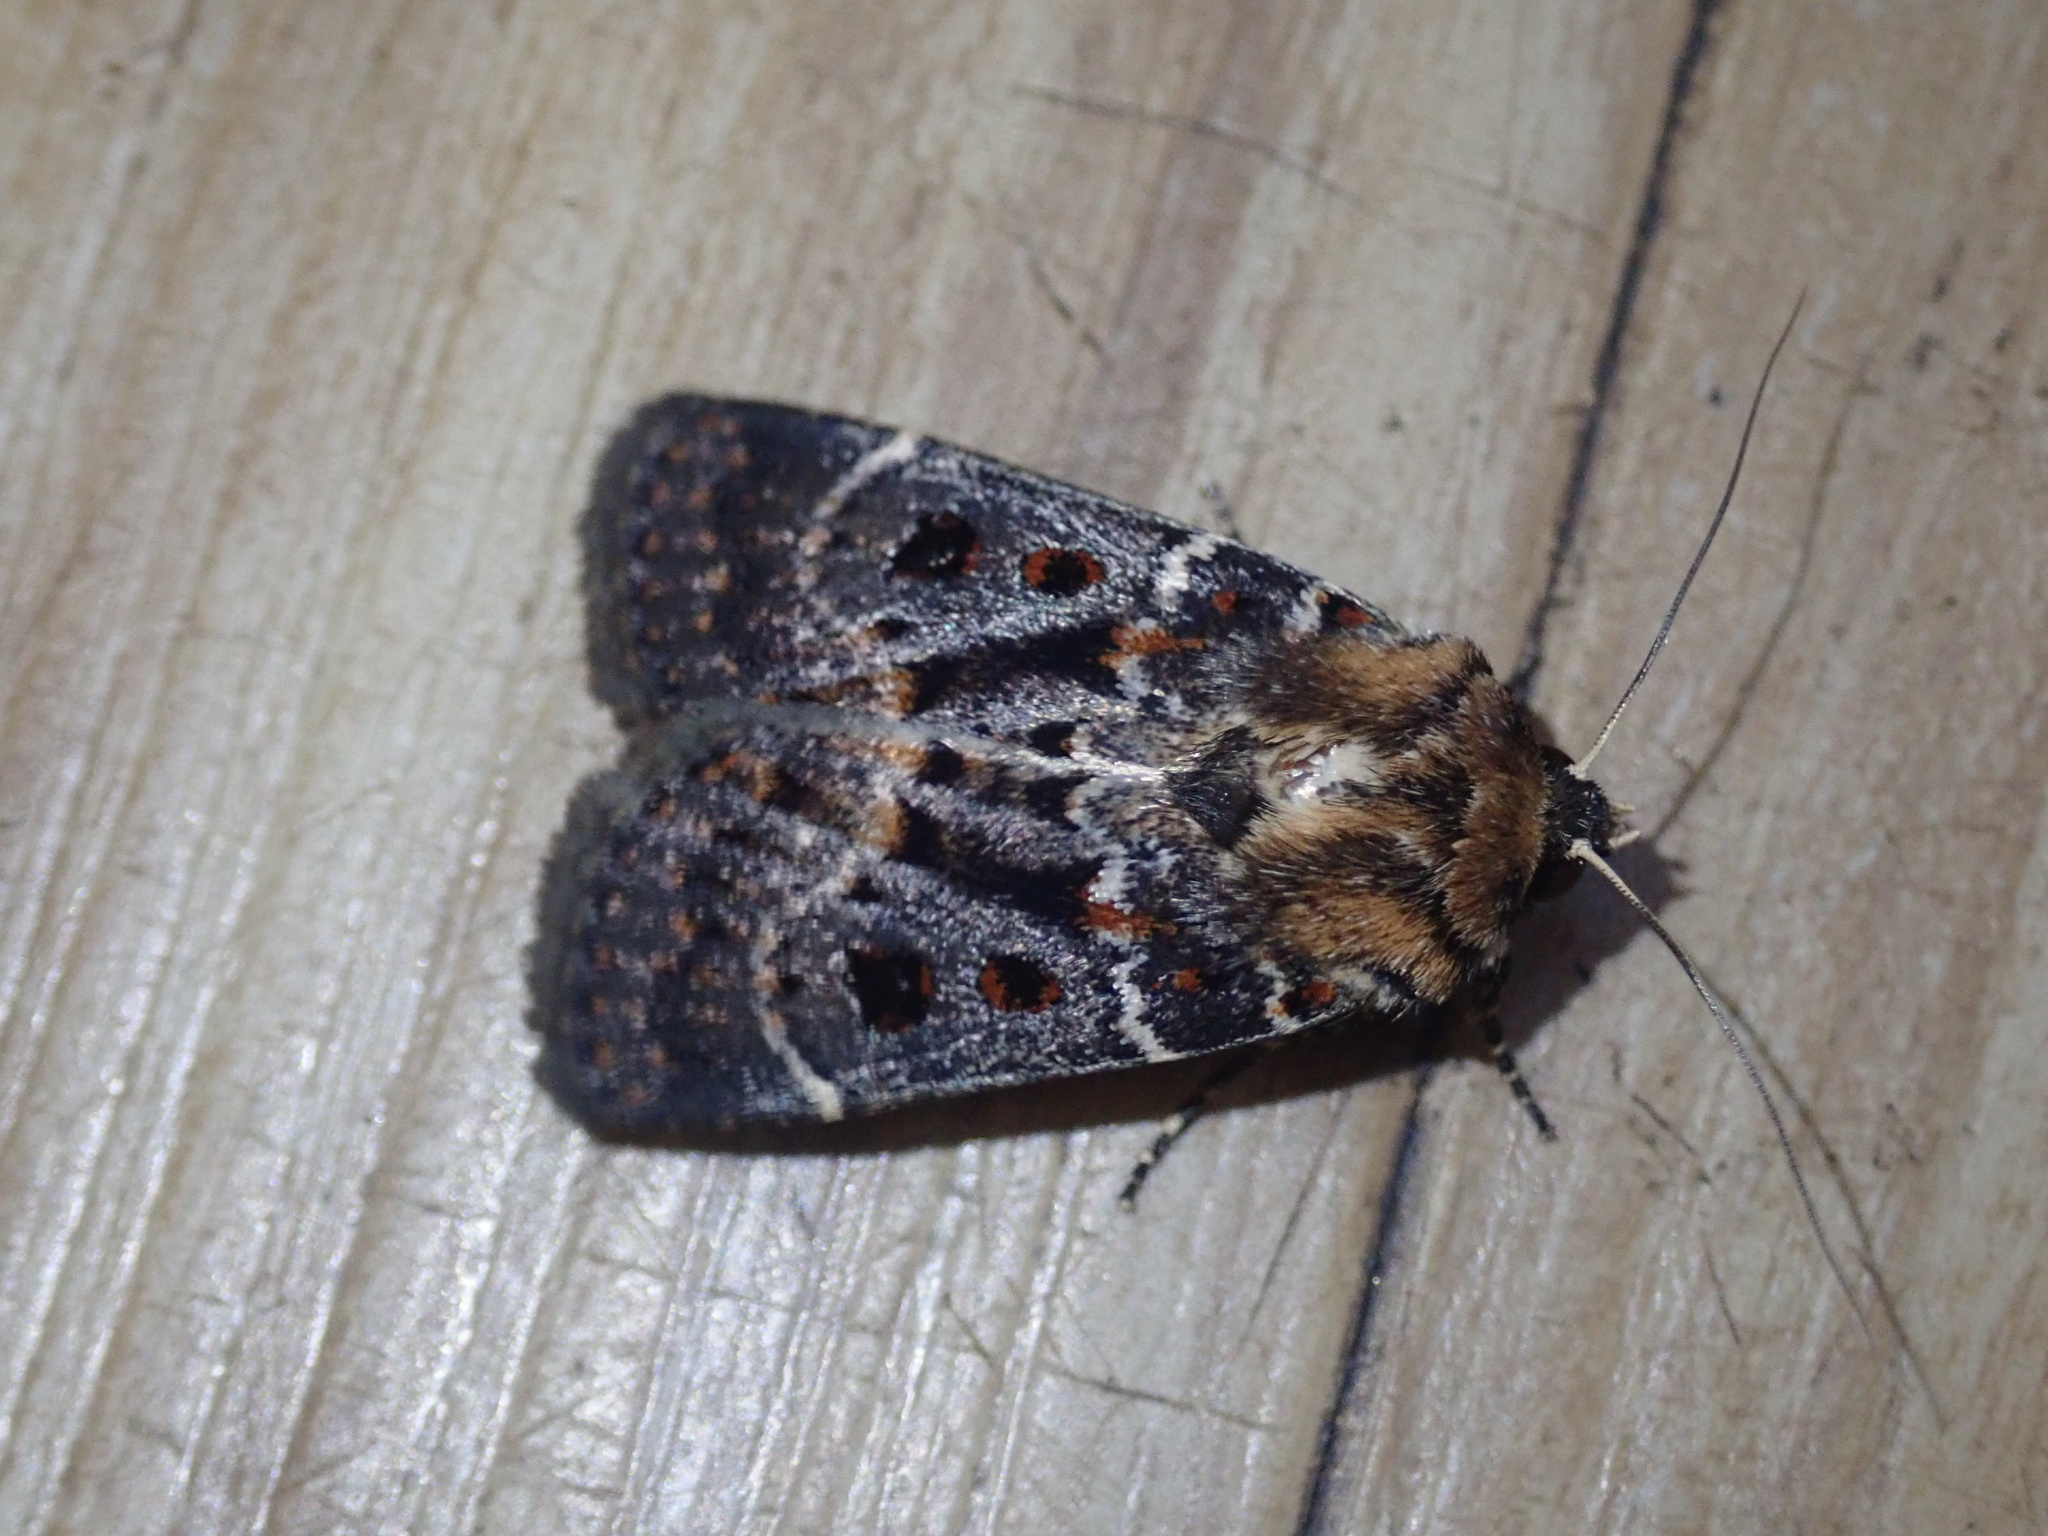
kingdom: Animalia
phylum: Arthropoda
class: Insecta
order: Lepidoptera
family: Noctuidae
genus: Proteuxoa
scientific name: Proteuxoa sanguinipuncta
